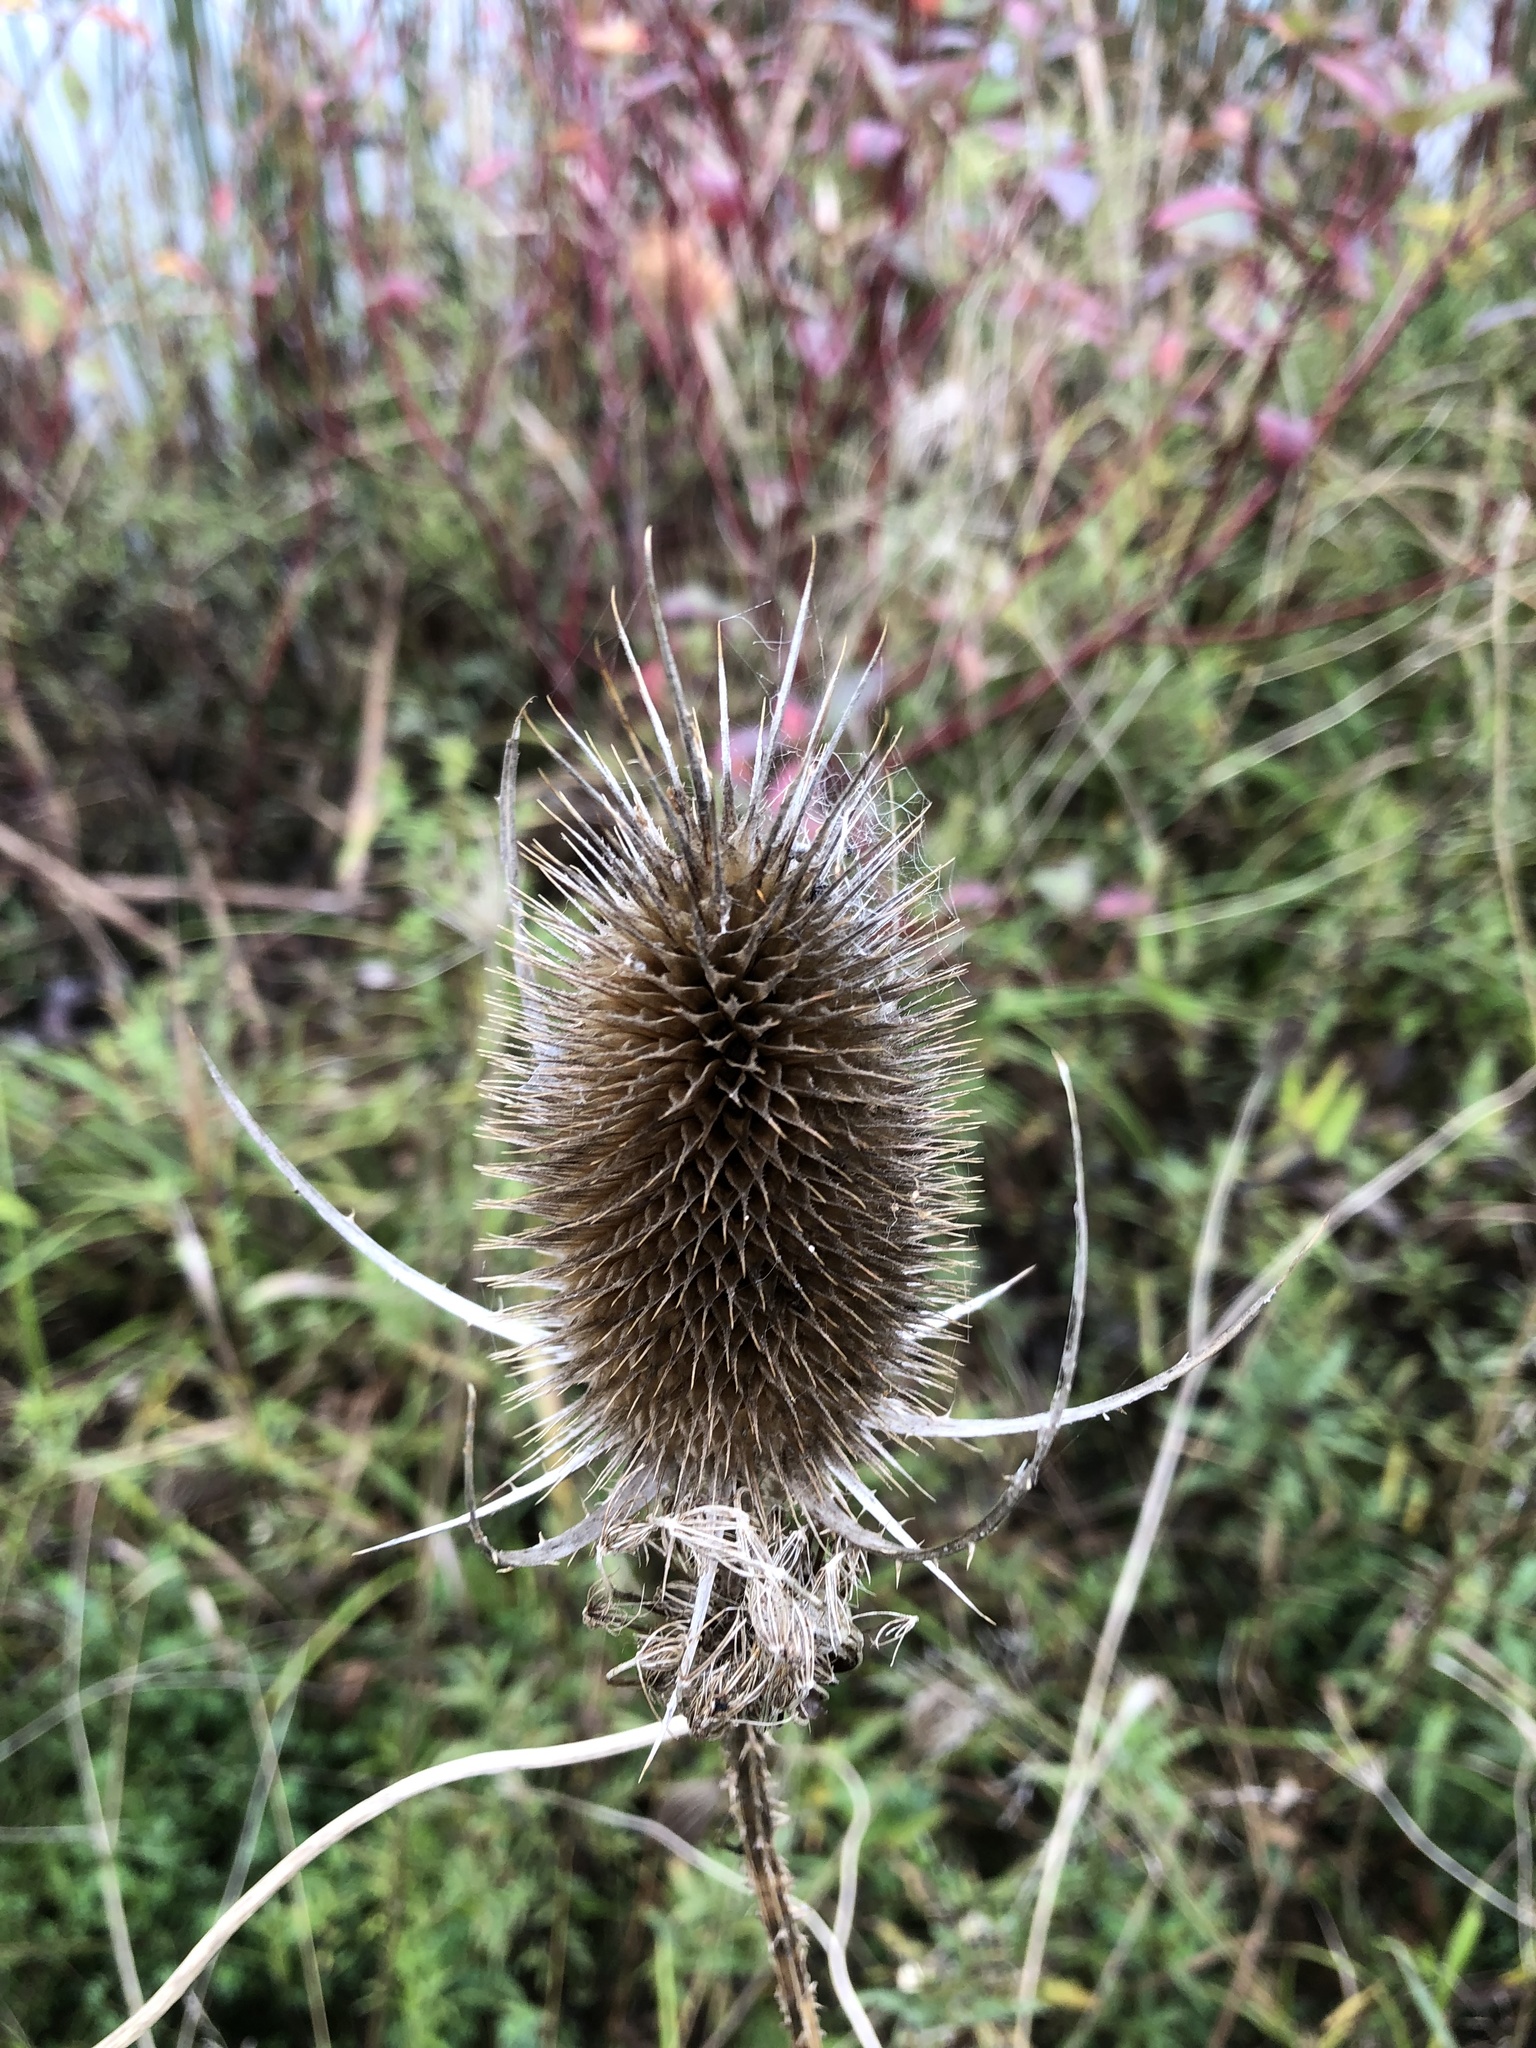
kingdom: Plantae
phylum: Tracheophyta
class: Magnoliopsida
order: Dipsacales
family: Caprifoliaceae
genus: Dipsacus
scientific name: Dipsacus fullonum
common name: Teasel
